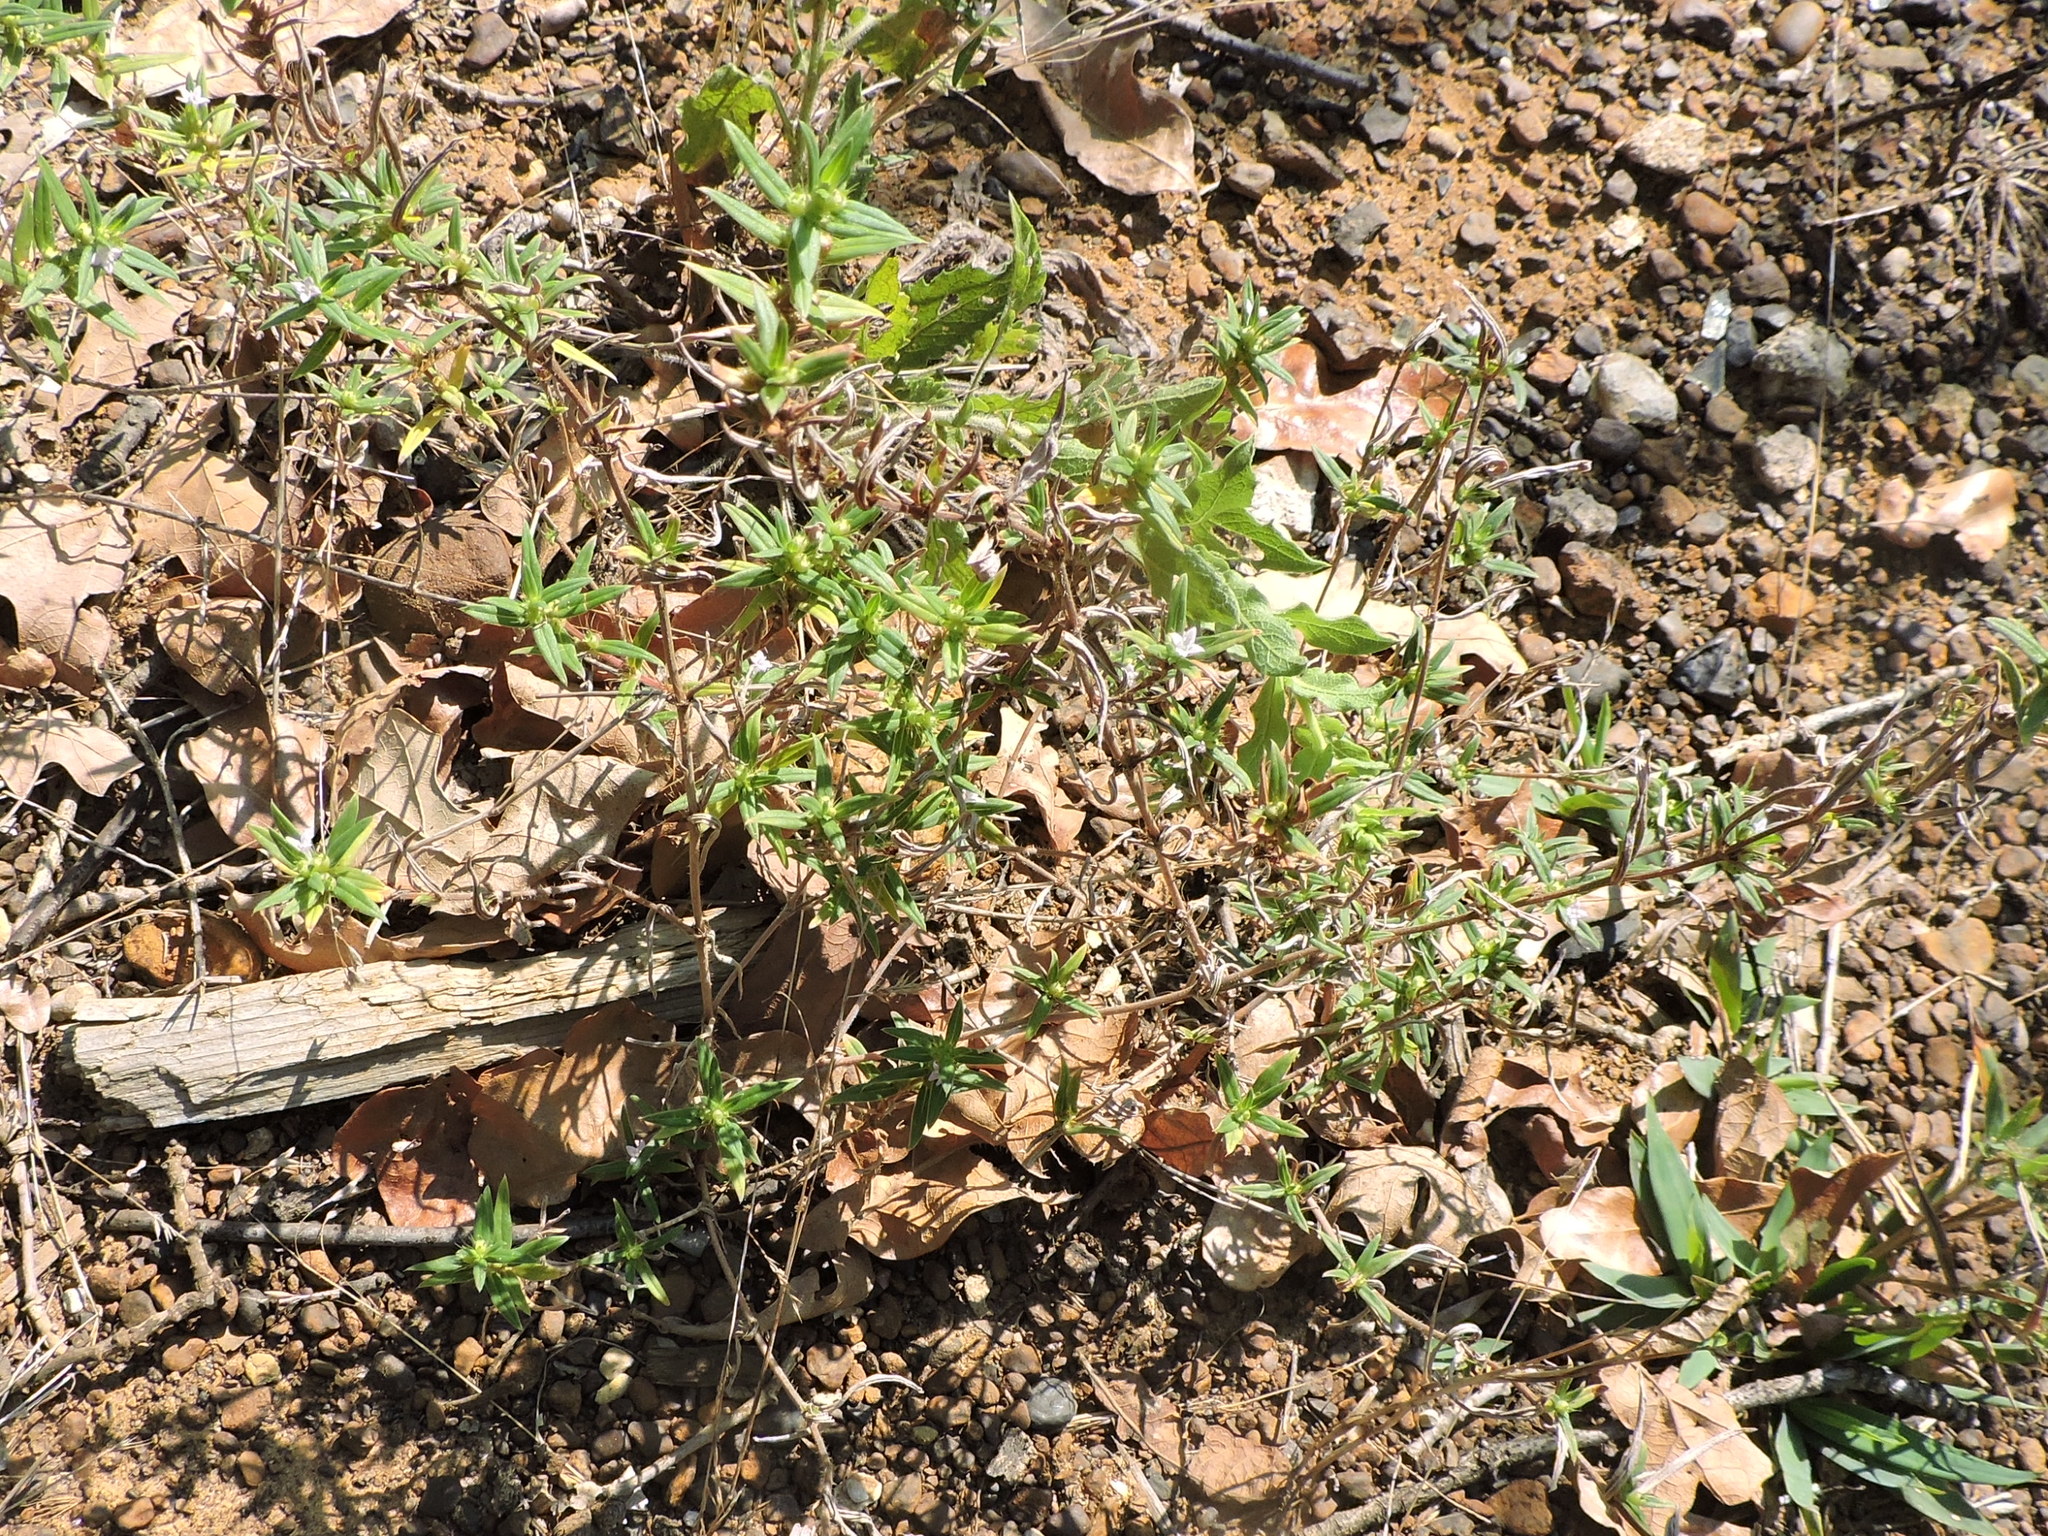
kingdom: Plantae
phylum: Tracheophyta
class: Magnoliopsida
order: Gentianales
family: Rubiaceae
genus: Hexasepalum
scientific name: Hexasepalum teres
